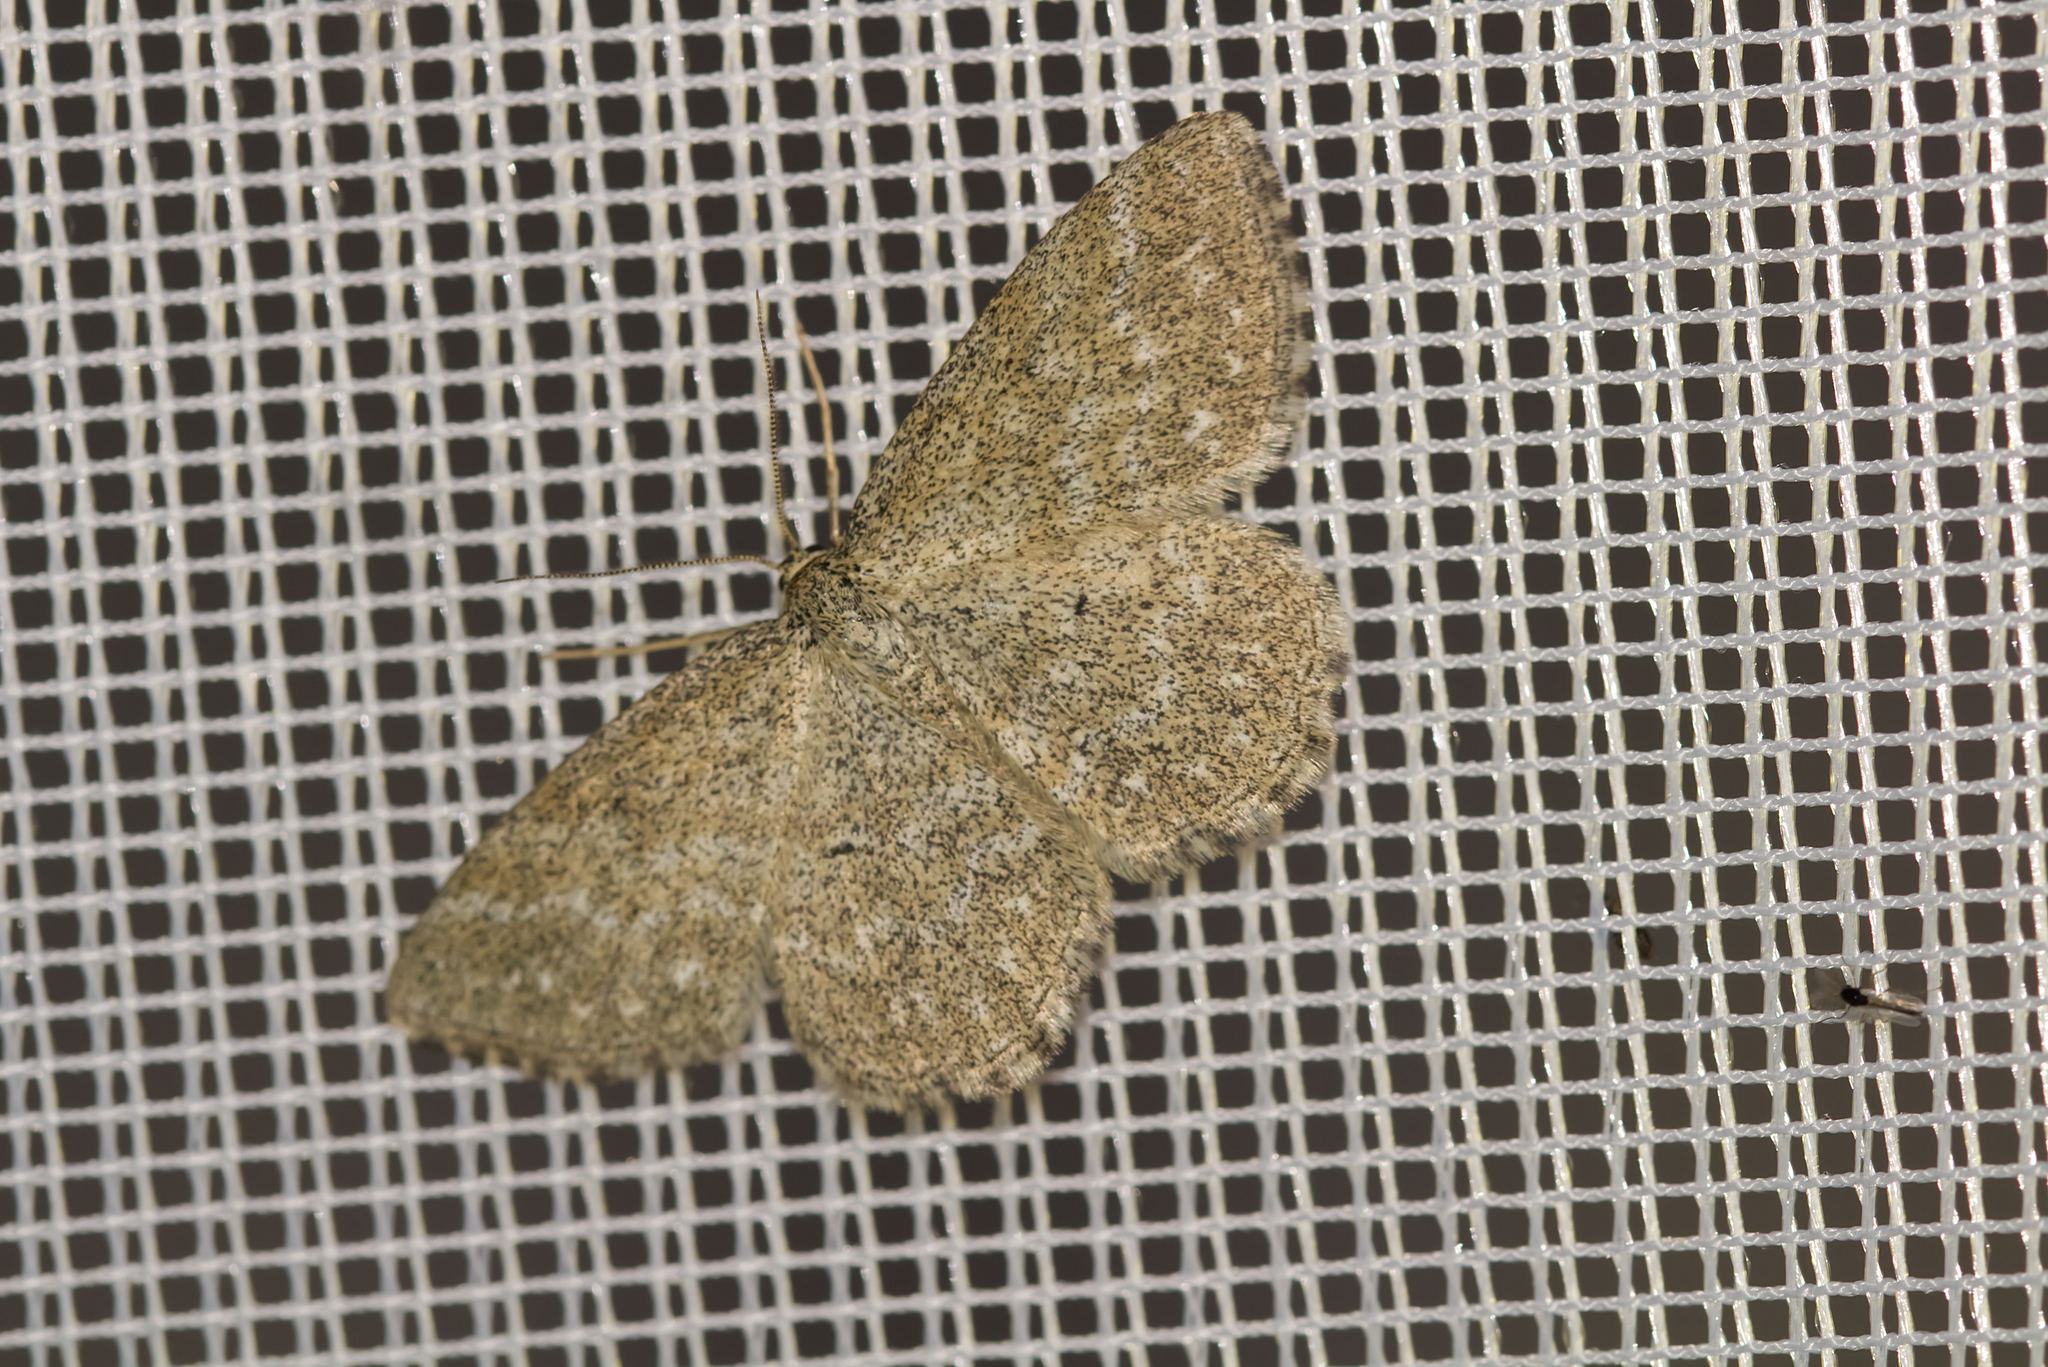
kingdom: Animalia
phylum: Arthropoda
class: Insecta
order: Lepidoptera
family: Geometridae
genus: Scopula
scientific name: Scopula immorata
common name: Lewes wave
